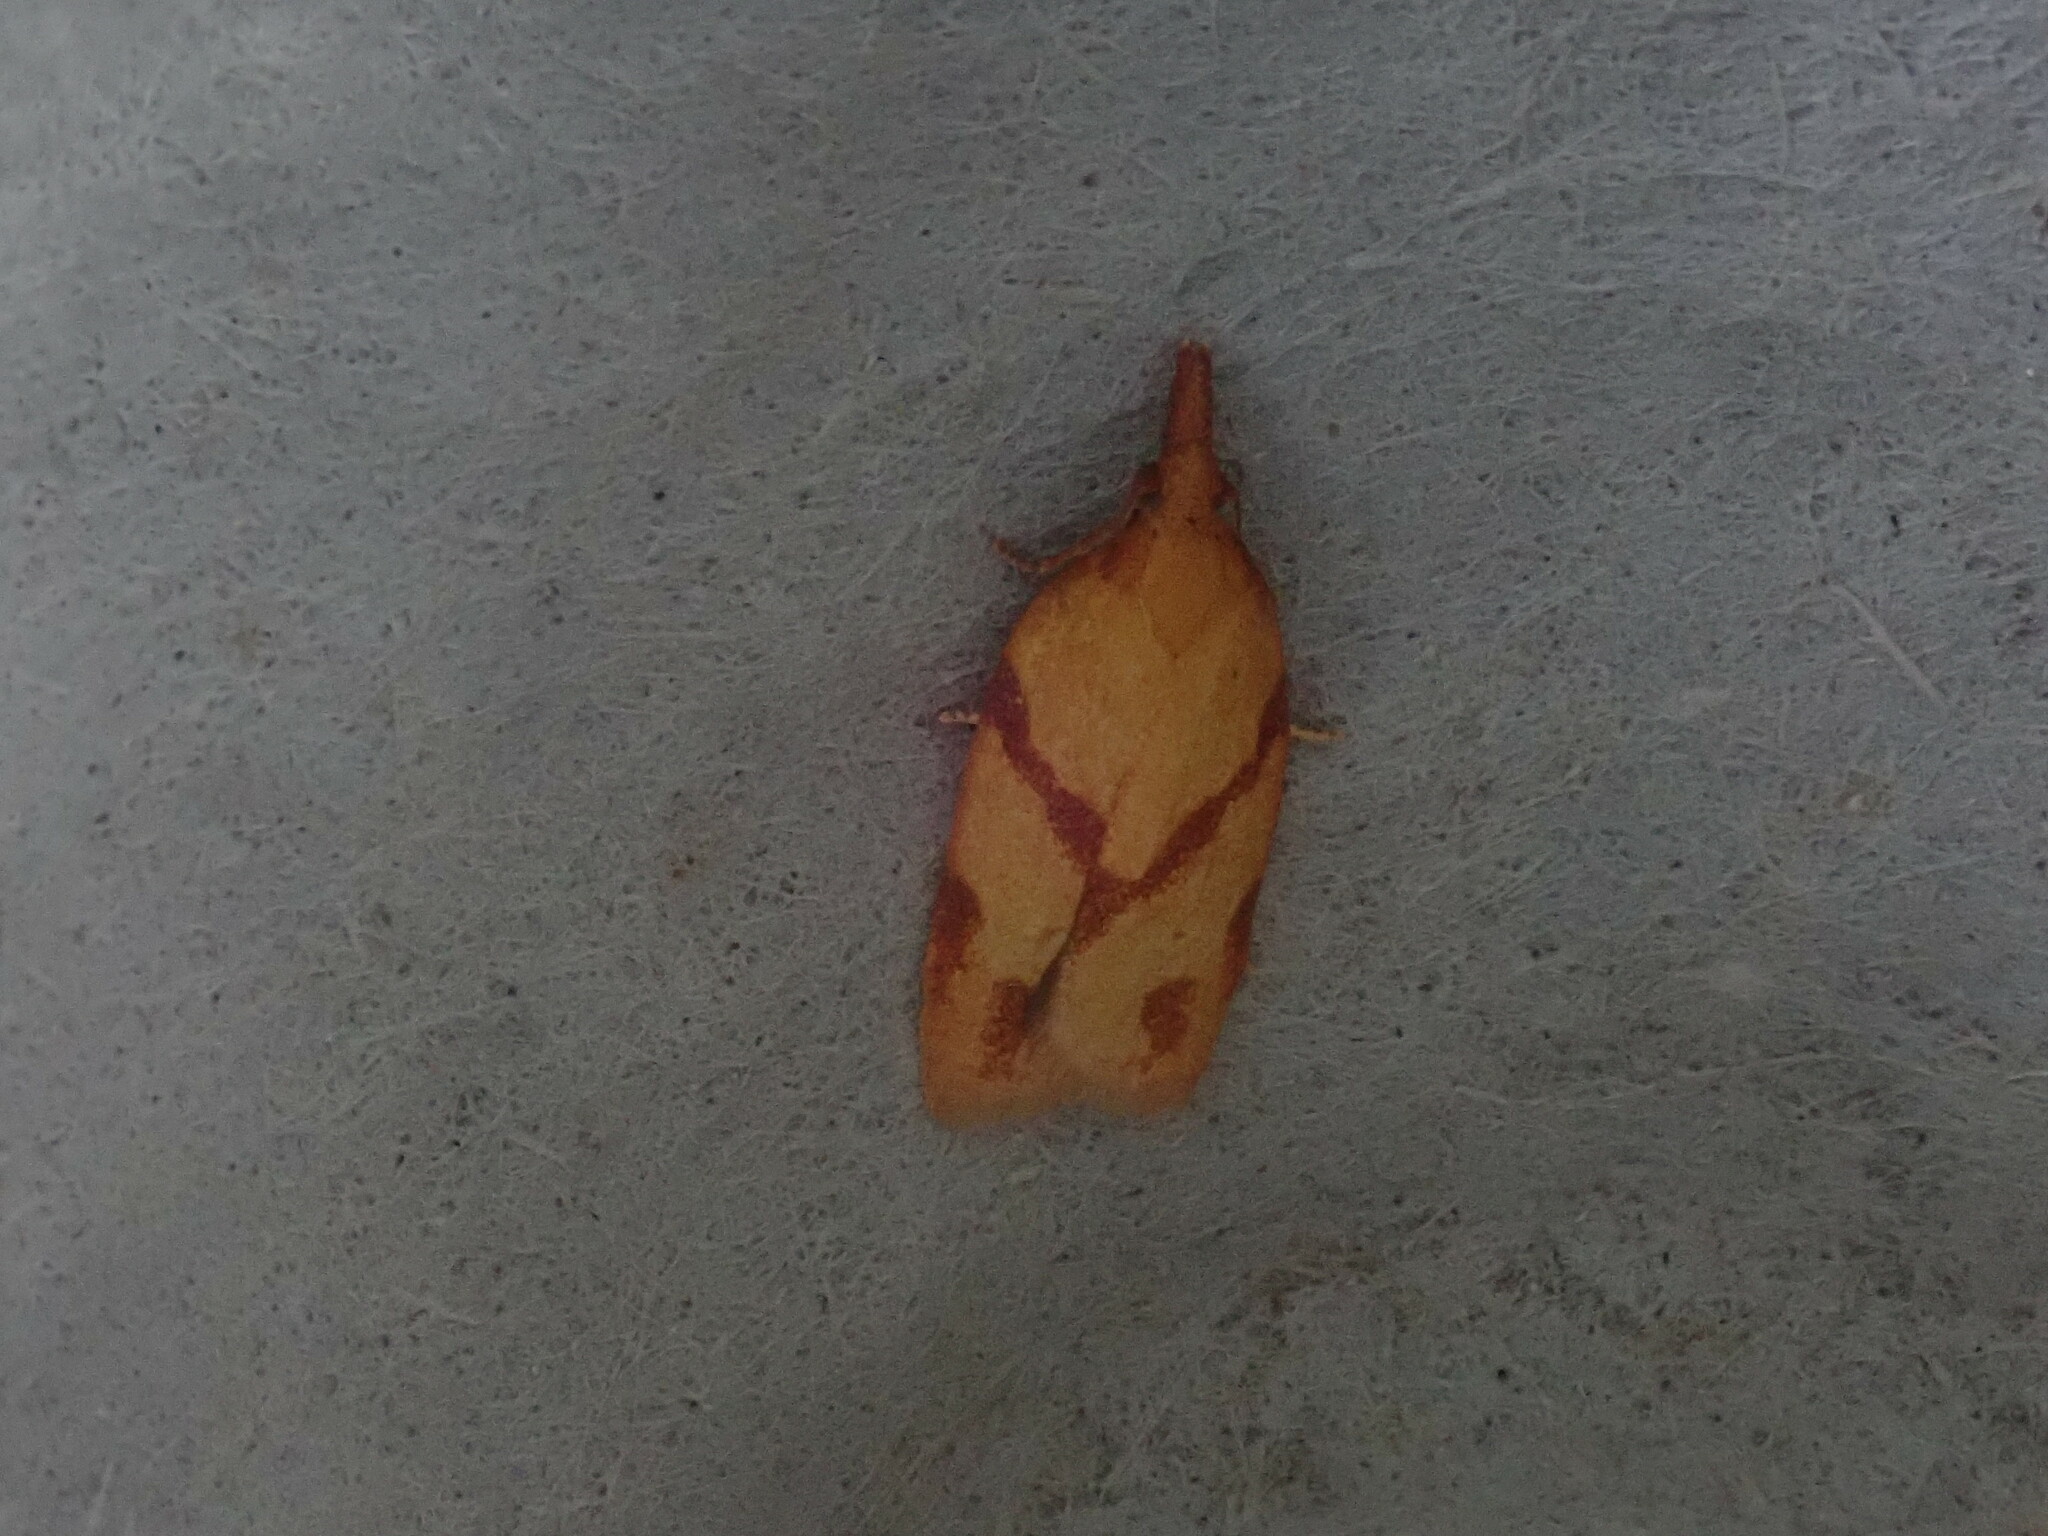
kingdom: Animalia
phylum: Arthropoda
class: Insecta
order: Lepidoptera
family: Tortricidae
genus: Sparganothis
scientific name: Sparganothis unifasciana
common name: One-lined sparganothis moth
